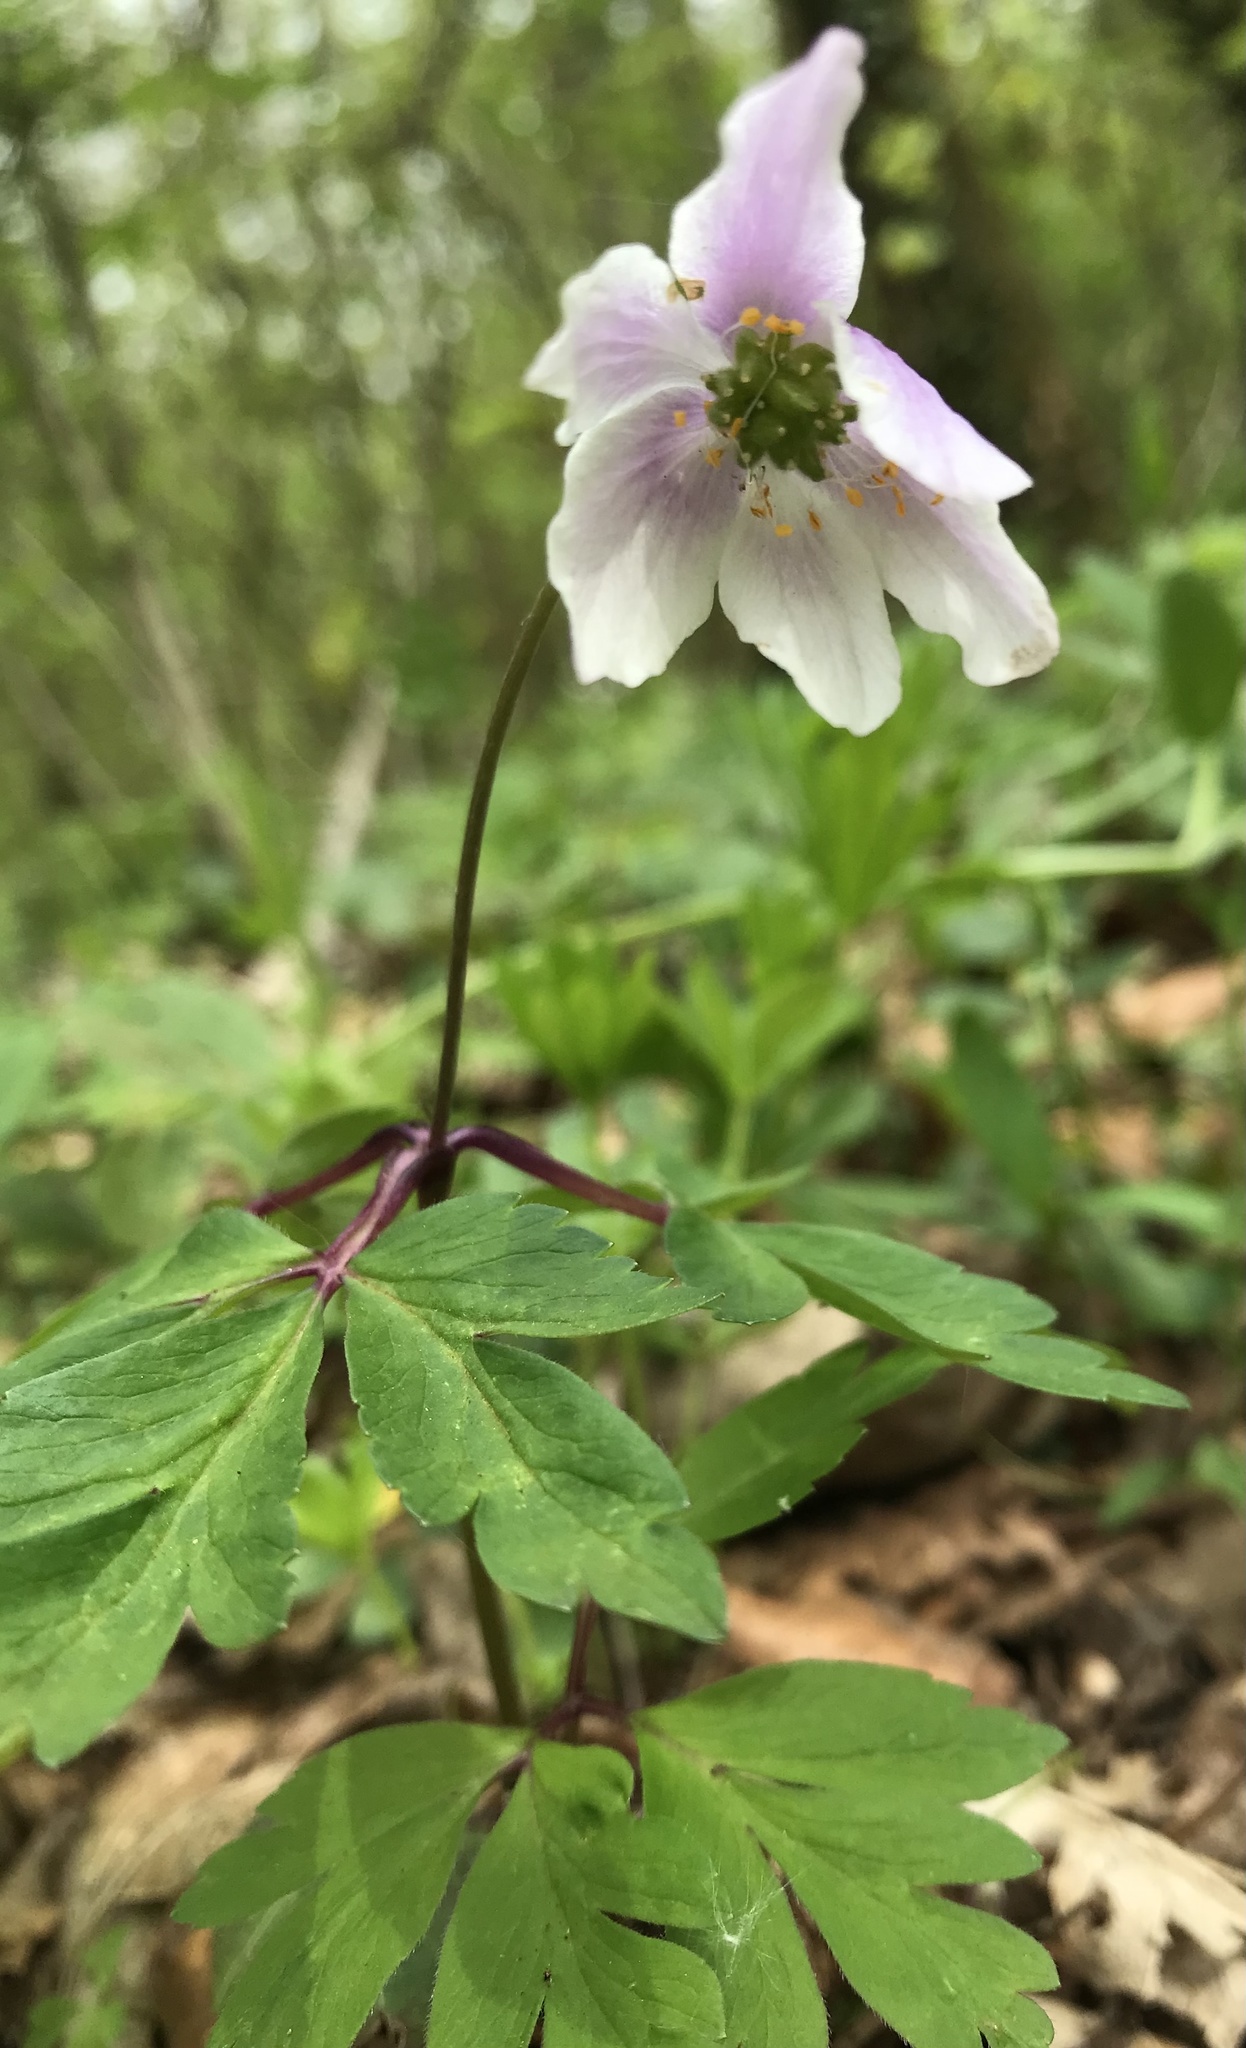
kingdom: Plantae
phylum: Tracheophyta
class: Magnoliopsida
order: Ranunculales
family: Ranunculaceae
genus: Anemone
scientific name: Anemone nemorosa
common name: Wood anemone
